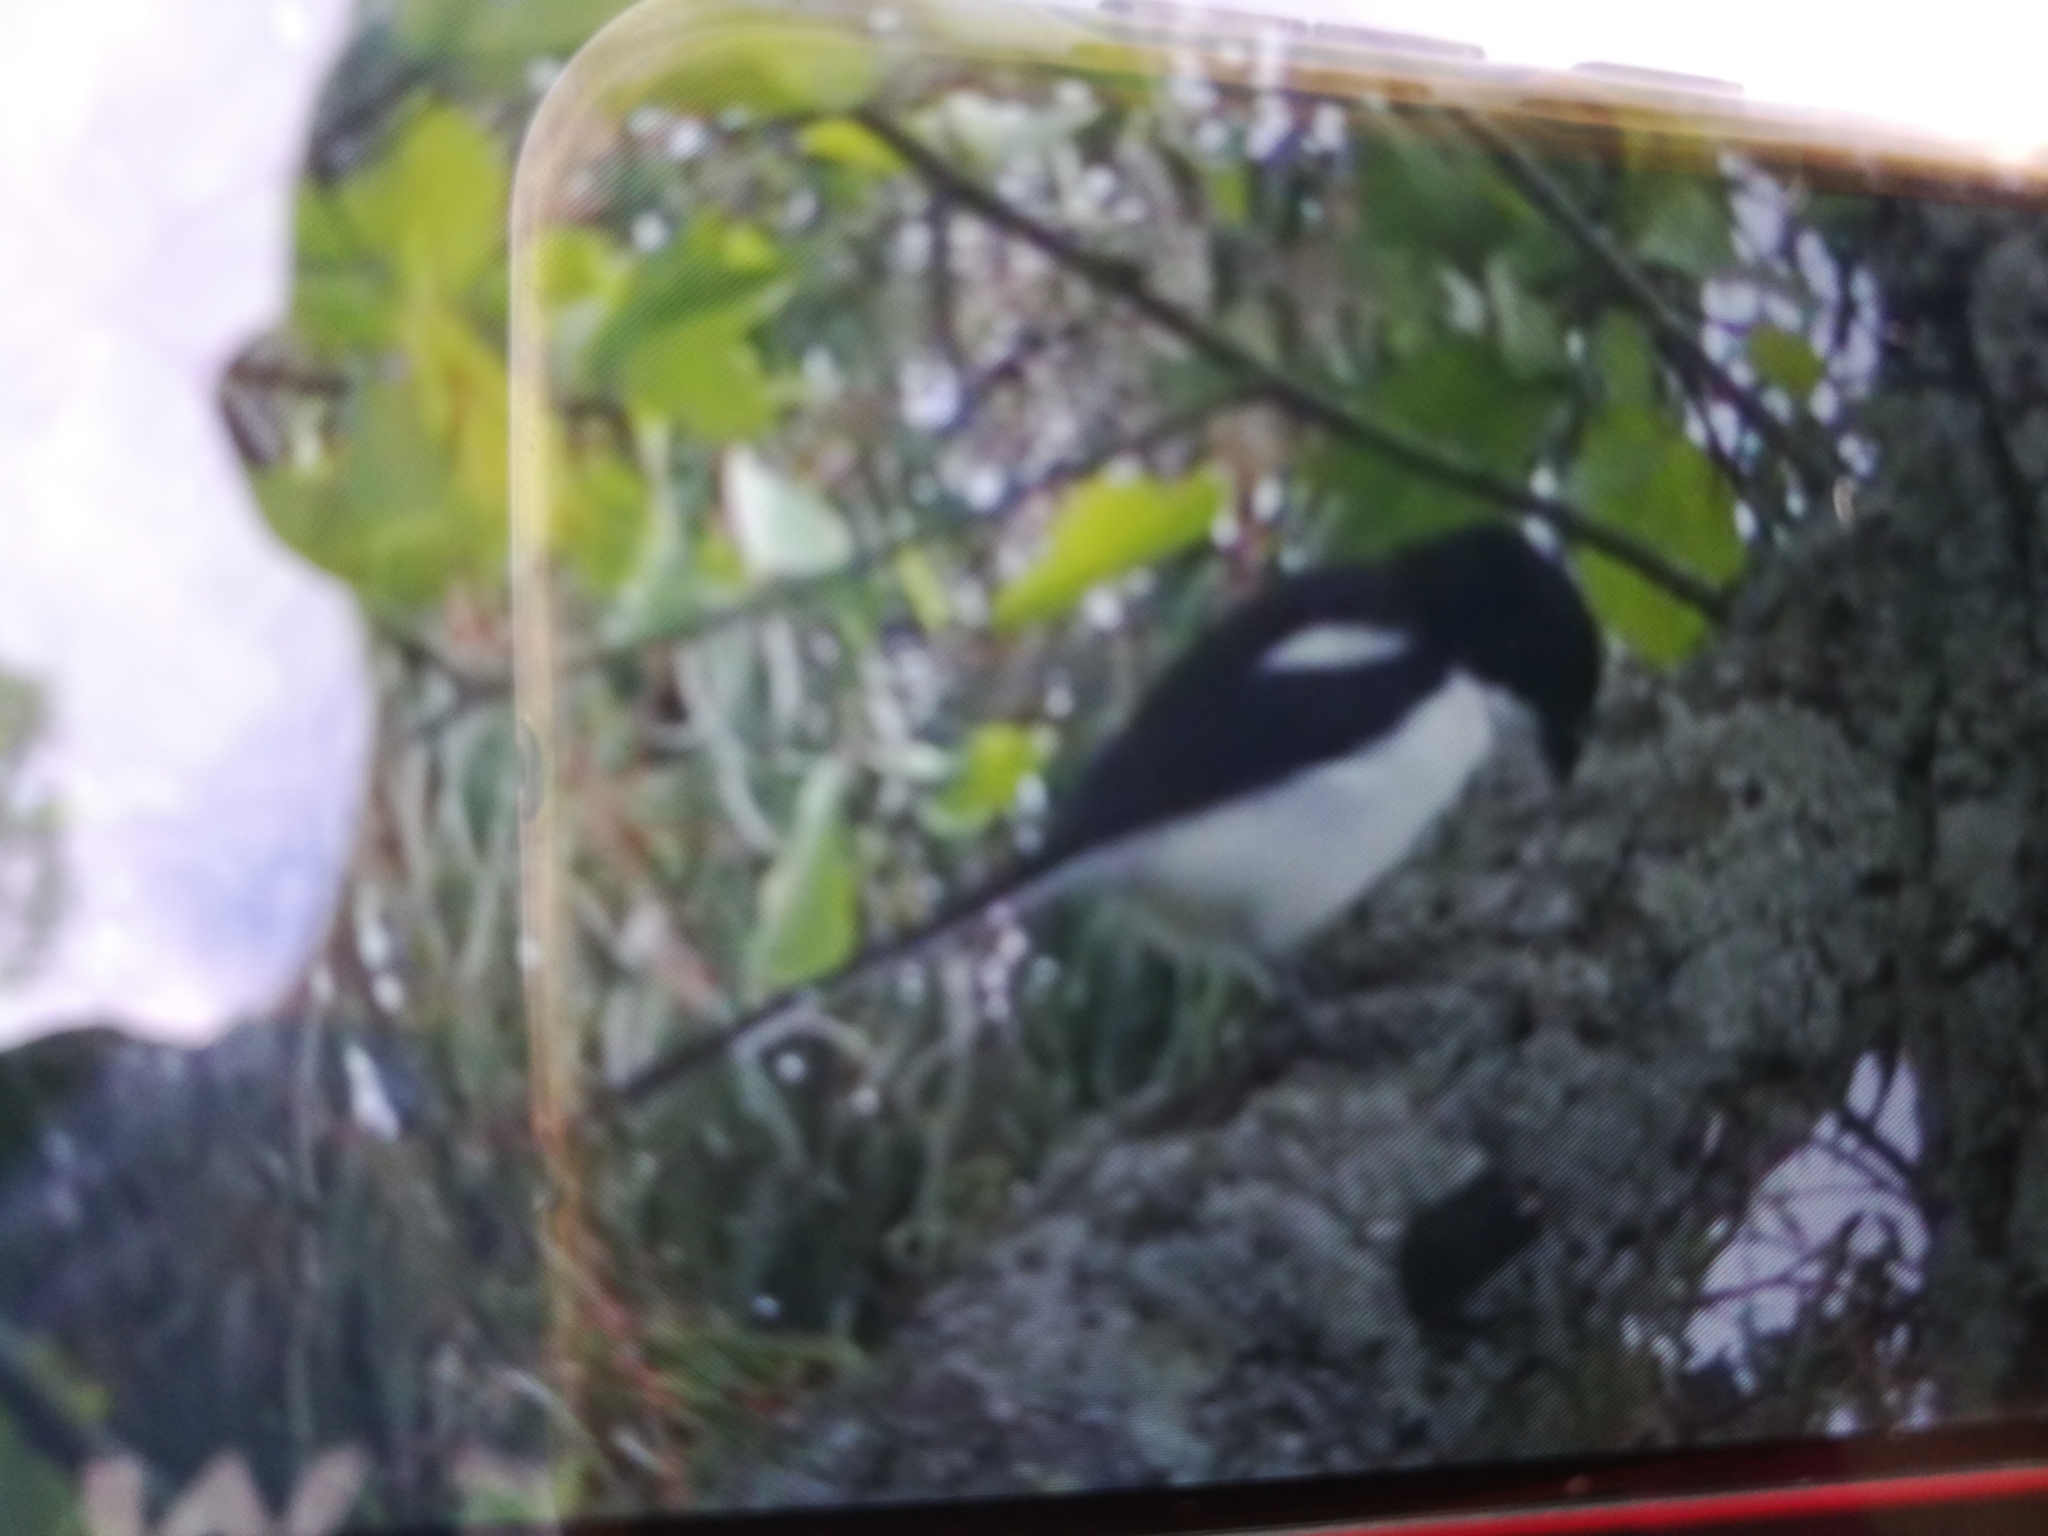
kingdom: Animalia
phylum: Chordata
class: Aves
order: Passeriformes
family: Laniidae
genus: Lanius
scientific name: Lanius humeralis
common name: Northern fiscal
